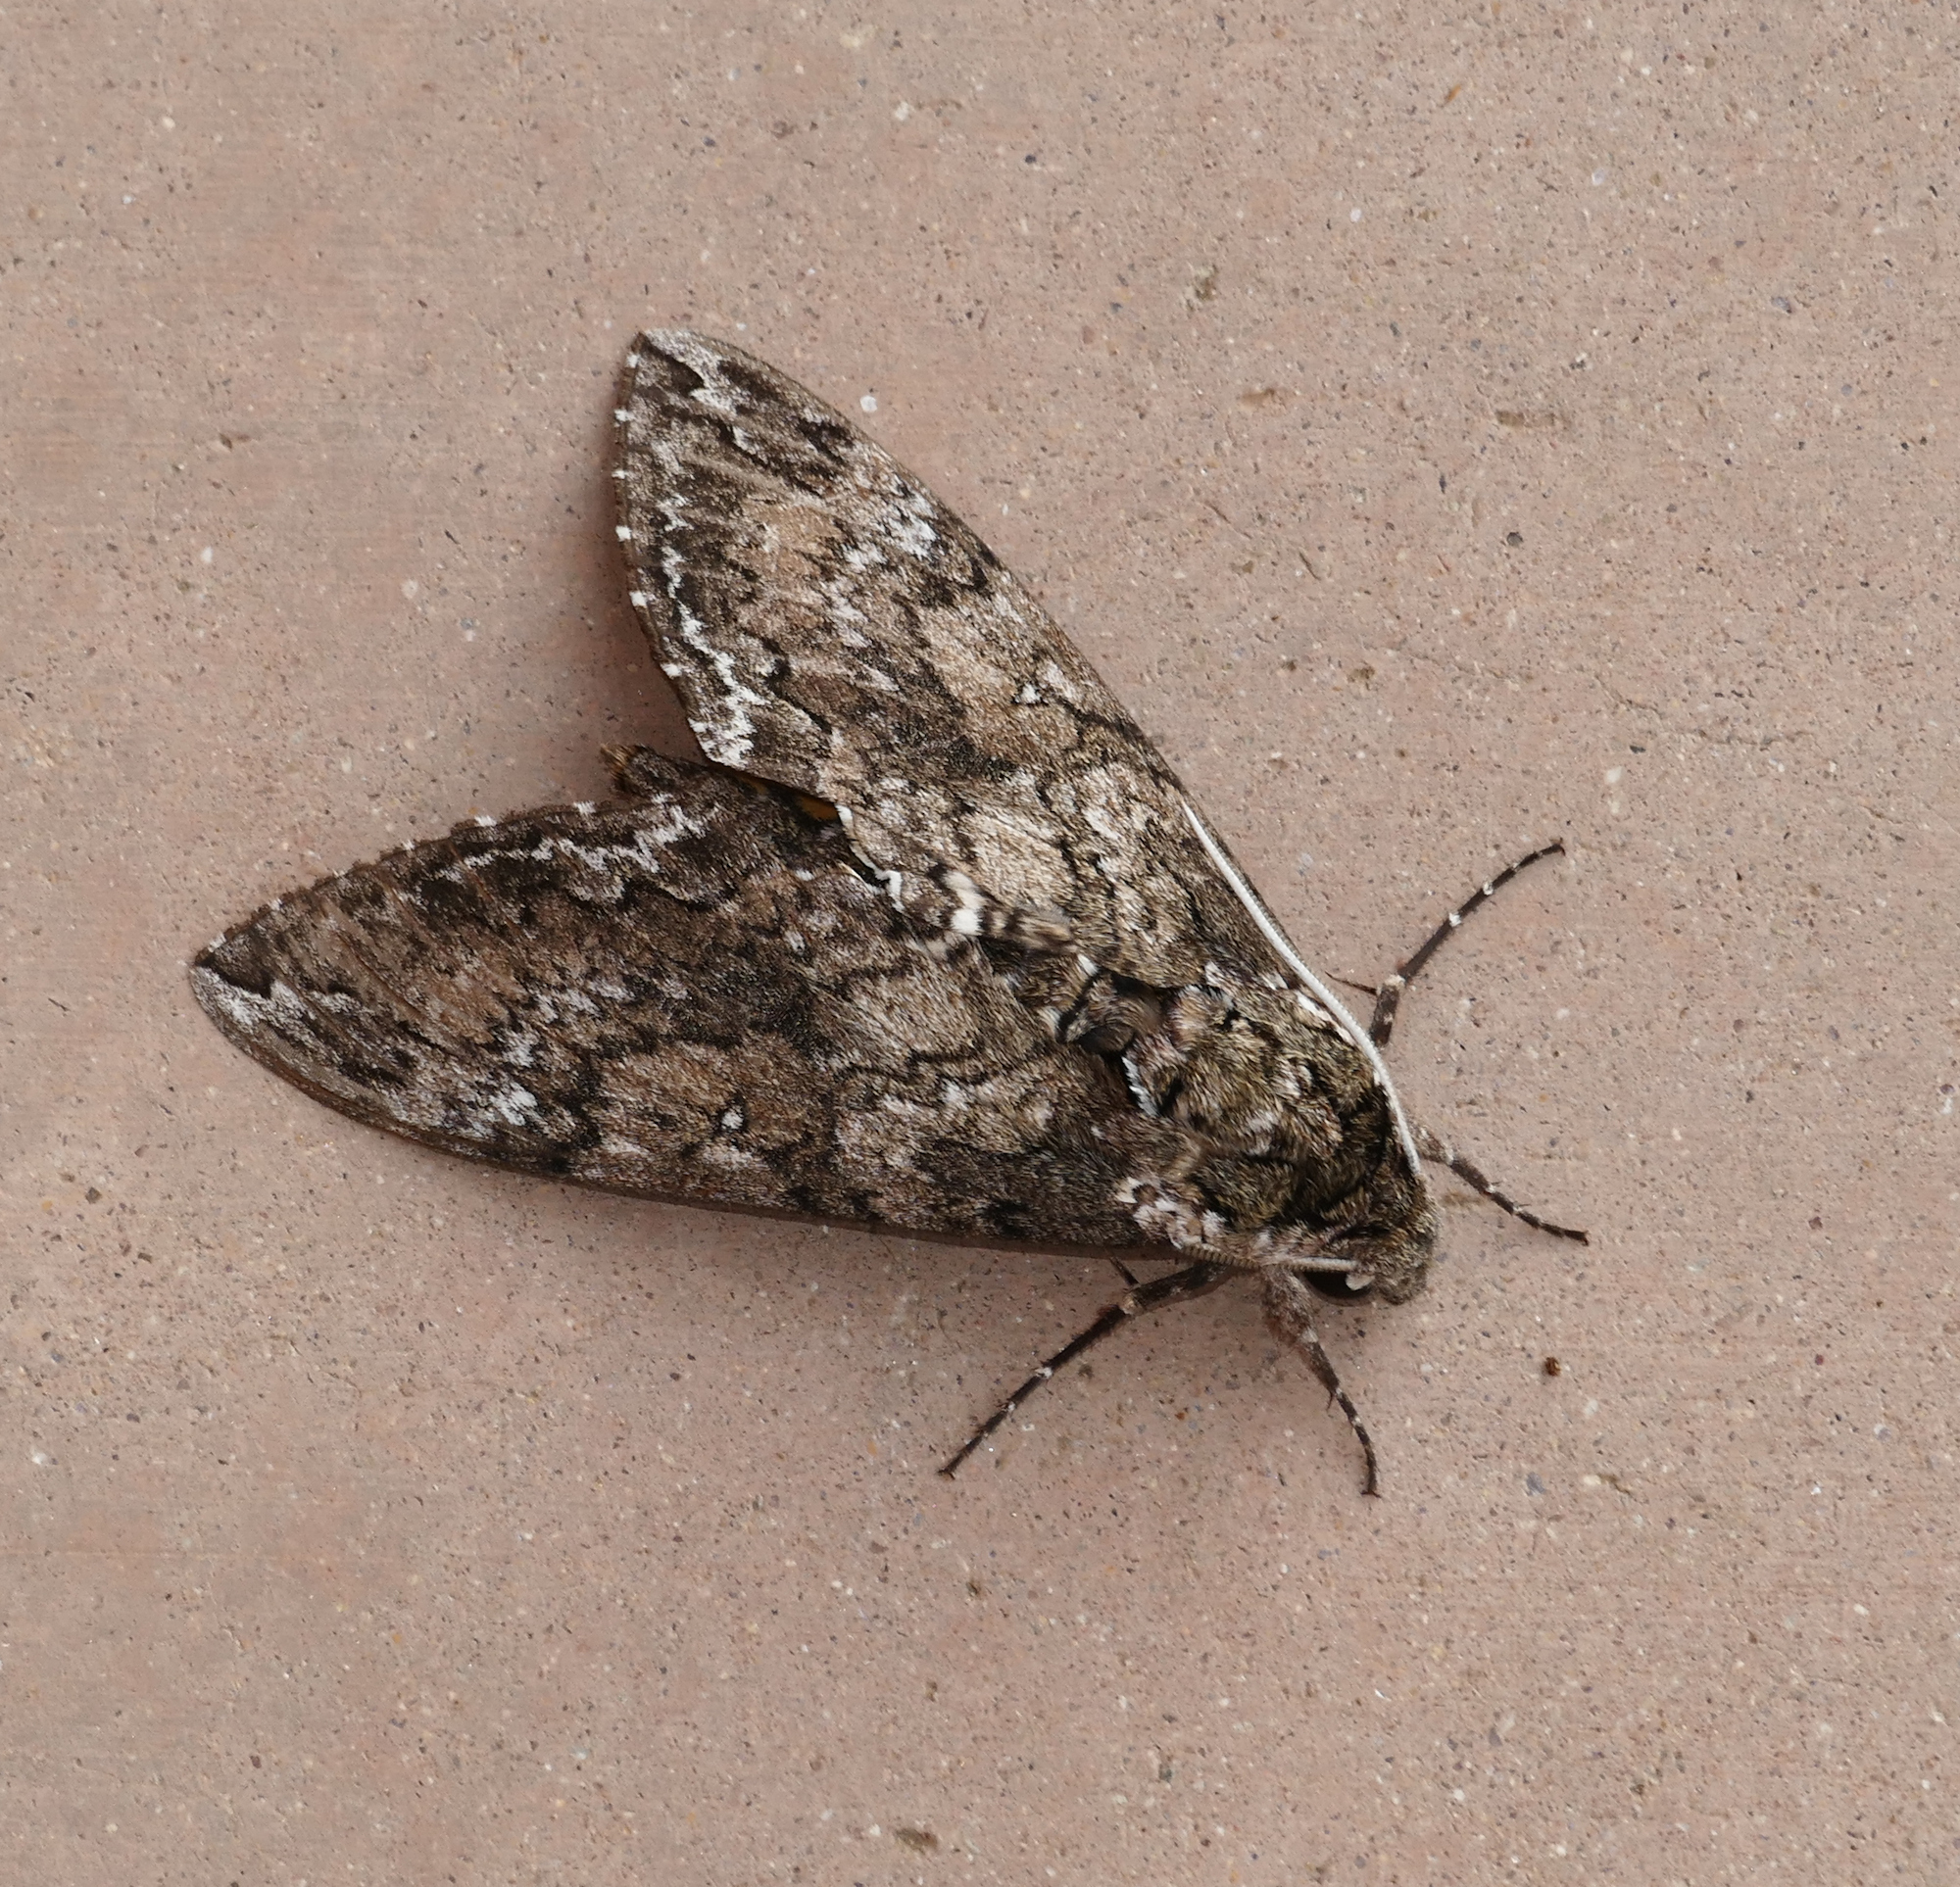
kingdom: Animalia
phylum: Arthropoda
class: Insecta
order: Lepidoptera
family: Sphingidae
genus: Manduca
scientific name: Manduca sexta
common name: Carolina sphinx
